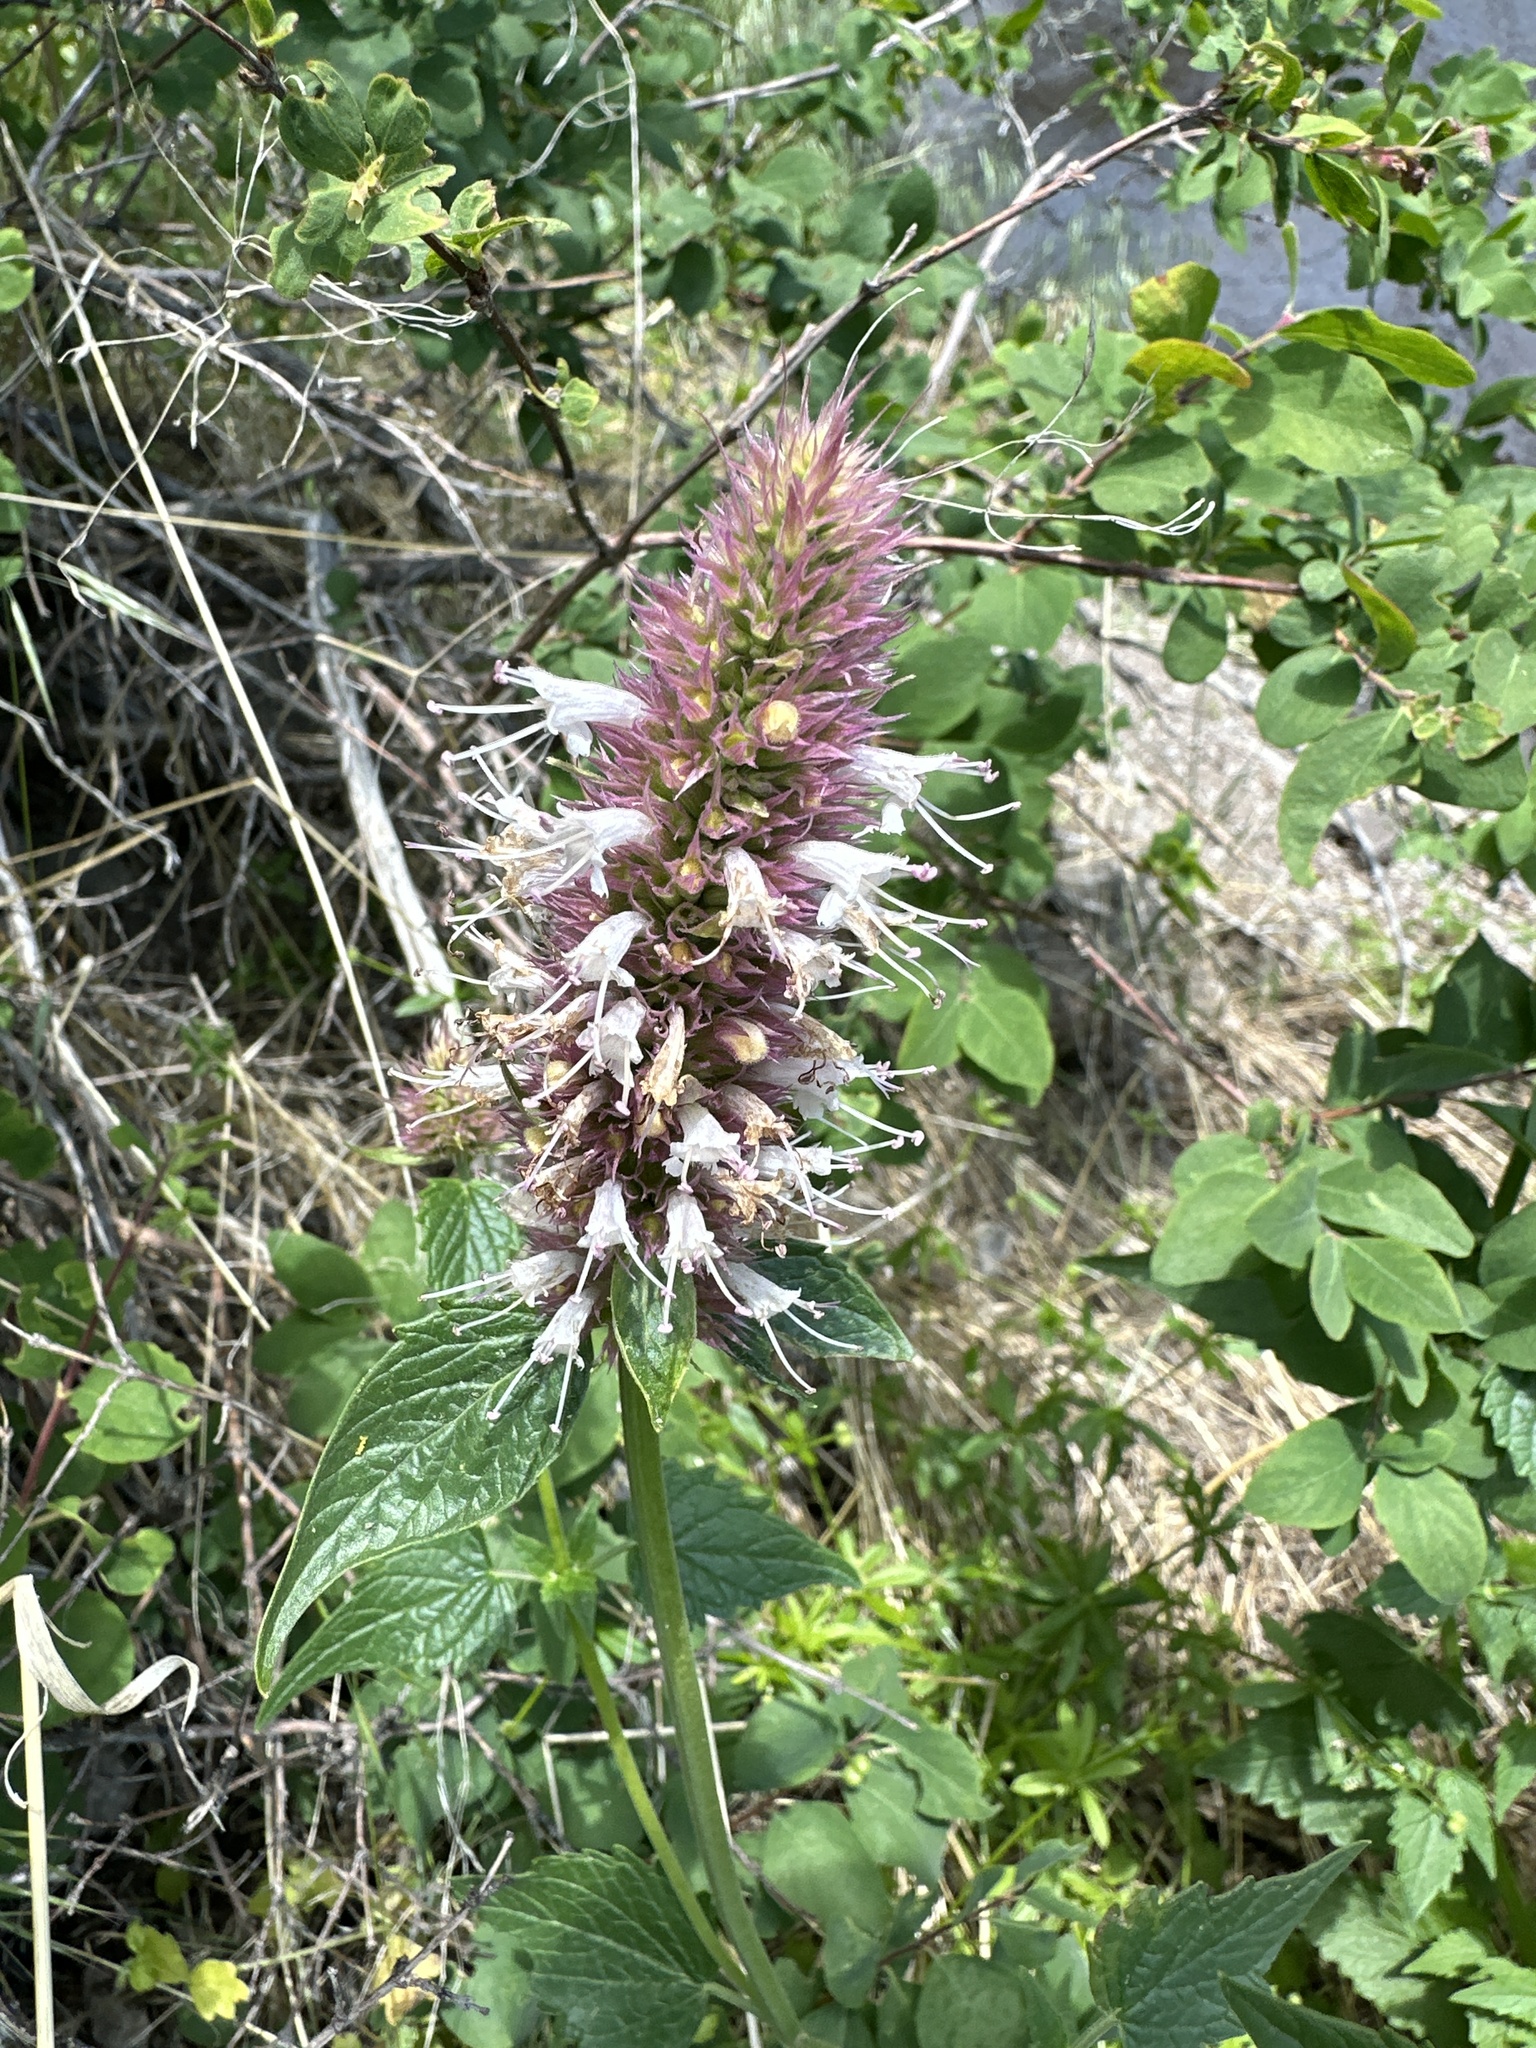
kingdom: Plantae
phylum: Tracheophyta
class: Magnoliopsida
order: Lamiales
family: Lamiaceae
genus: Agastache
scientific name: Agastache urticifolia
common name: Horsemint giant hyssop
